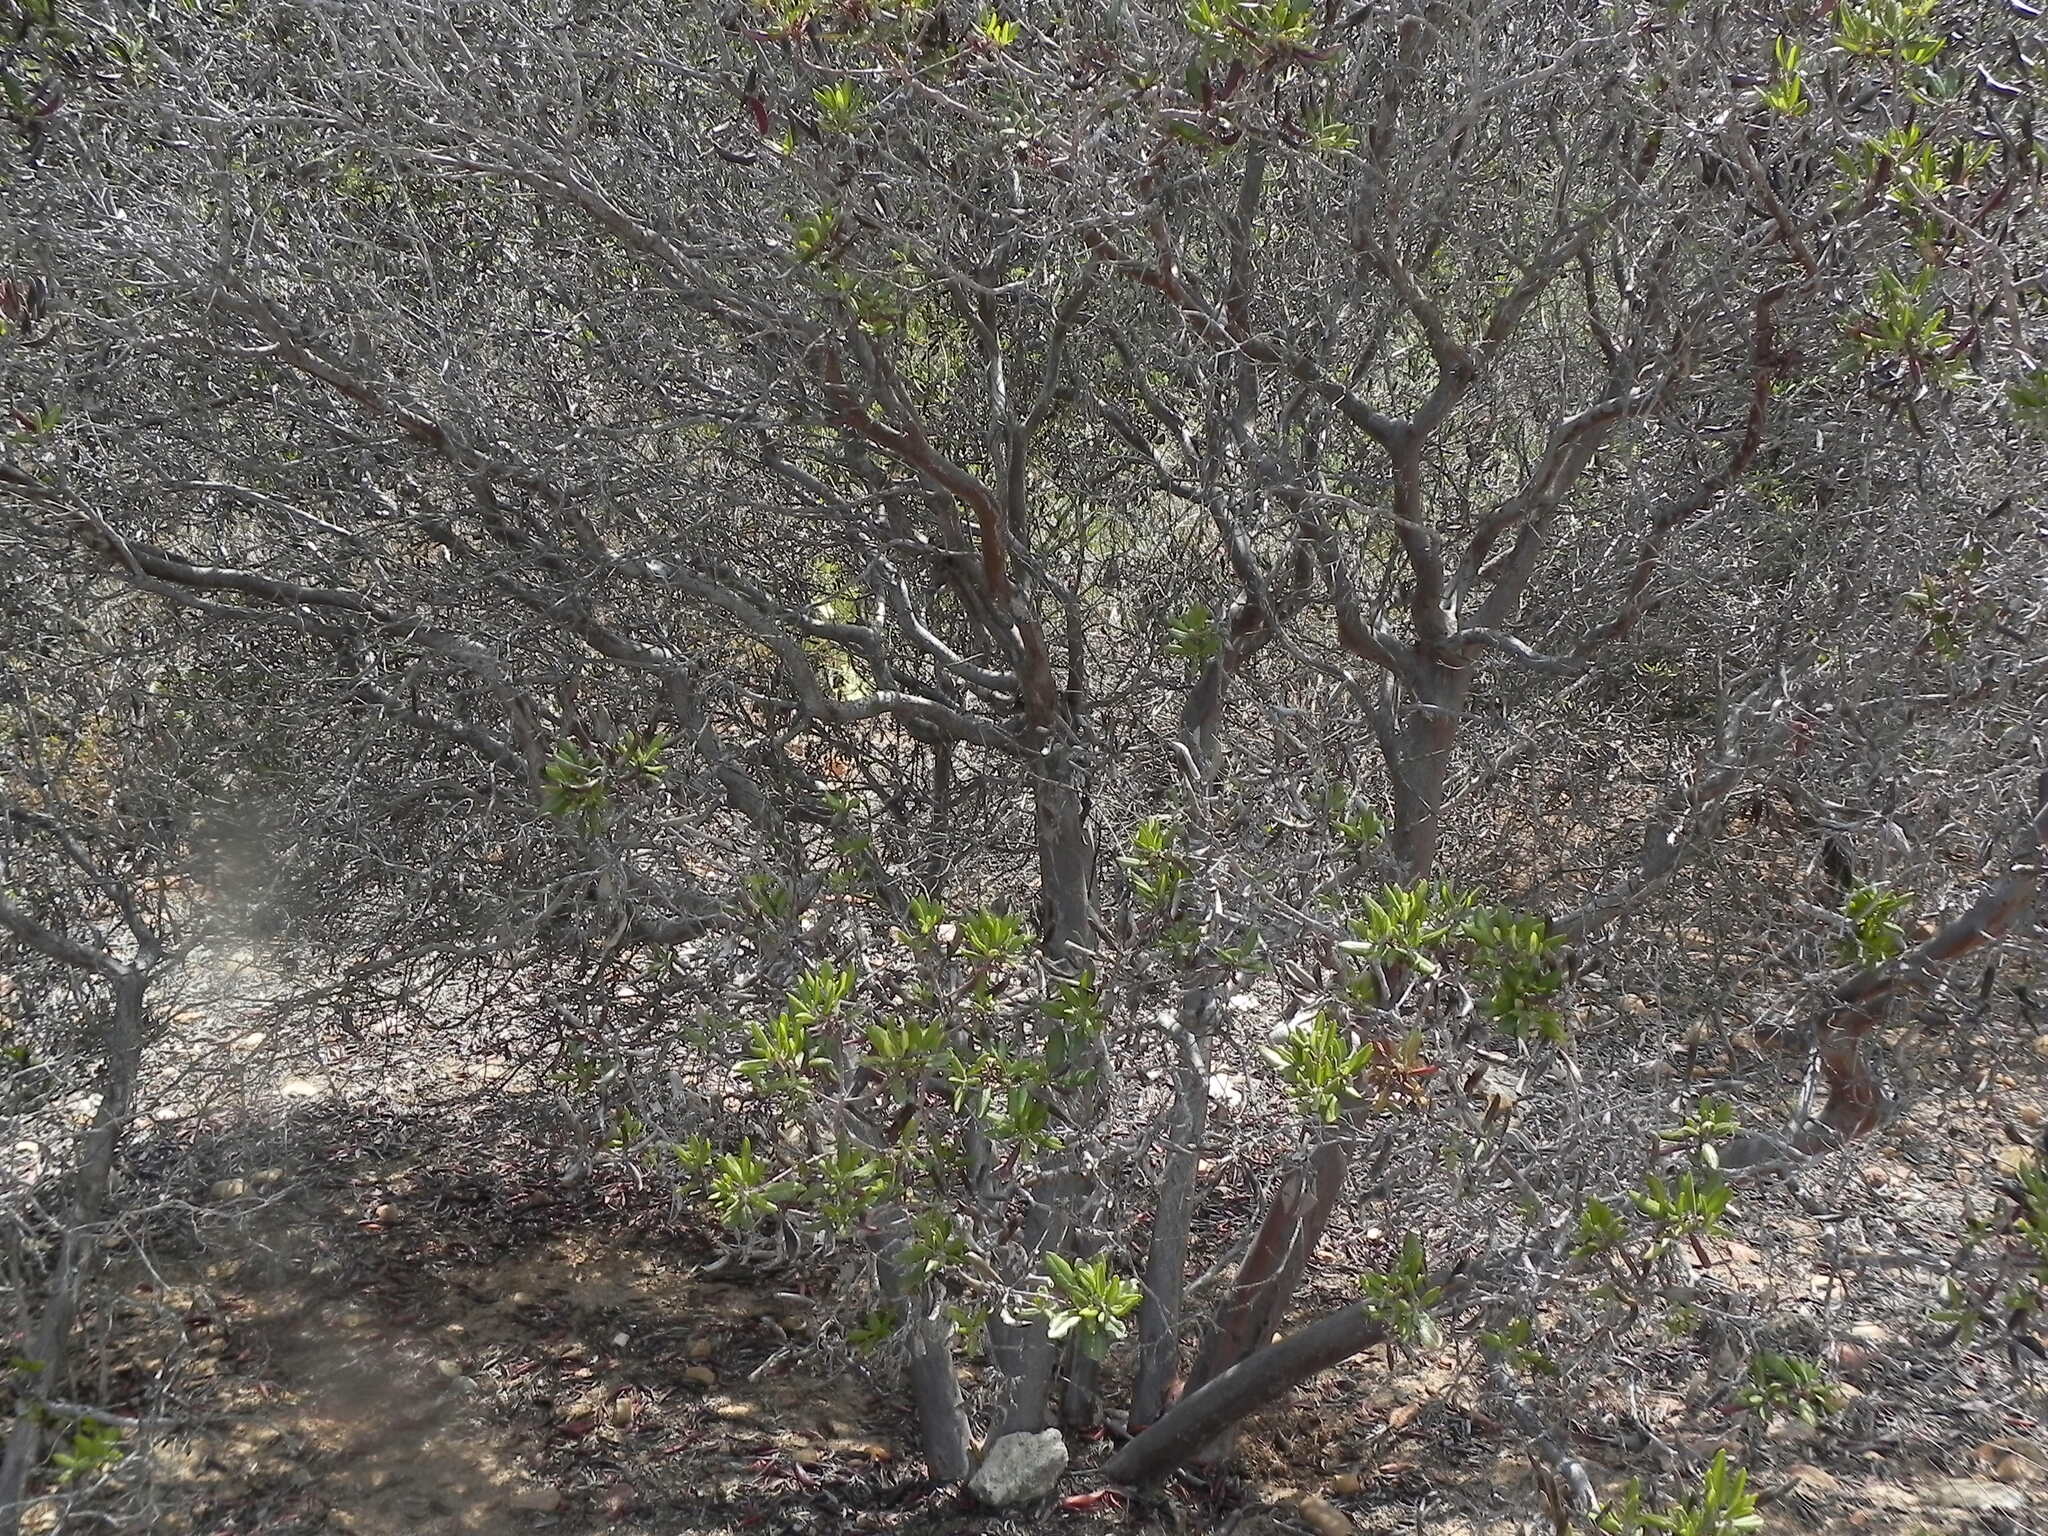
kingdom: Plantae
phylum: Tracheophyta
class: Magnoliopsida
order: Ericales
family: Ericaceae
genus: Arctostaphylos
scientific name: Arctostaphylos bicolor
